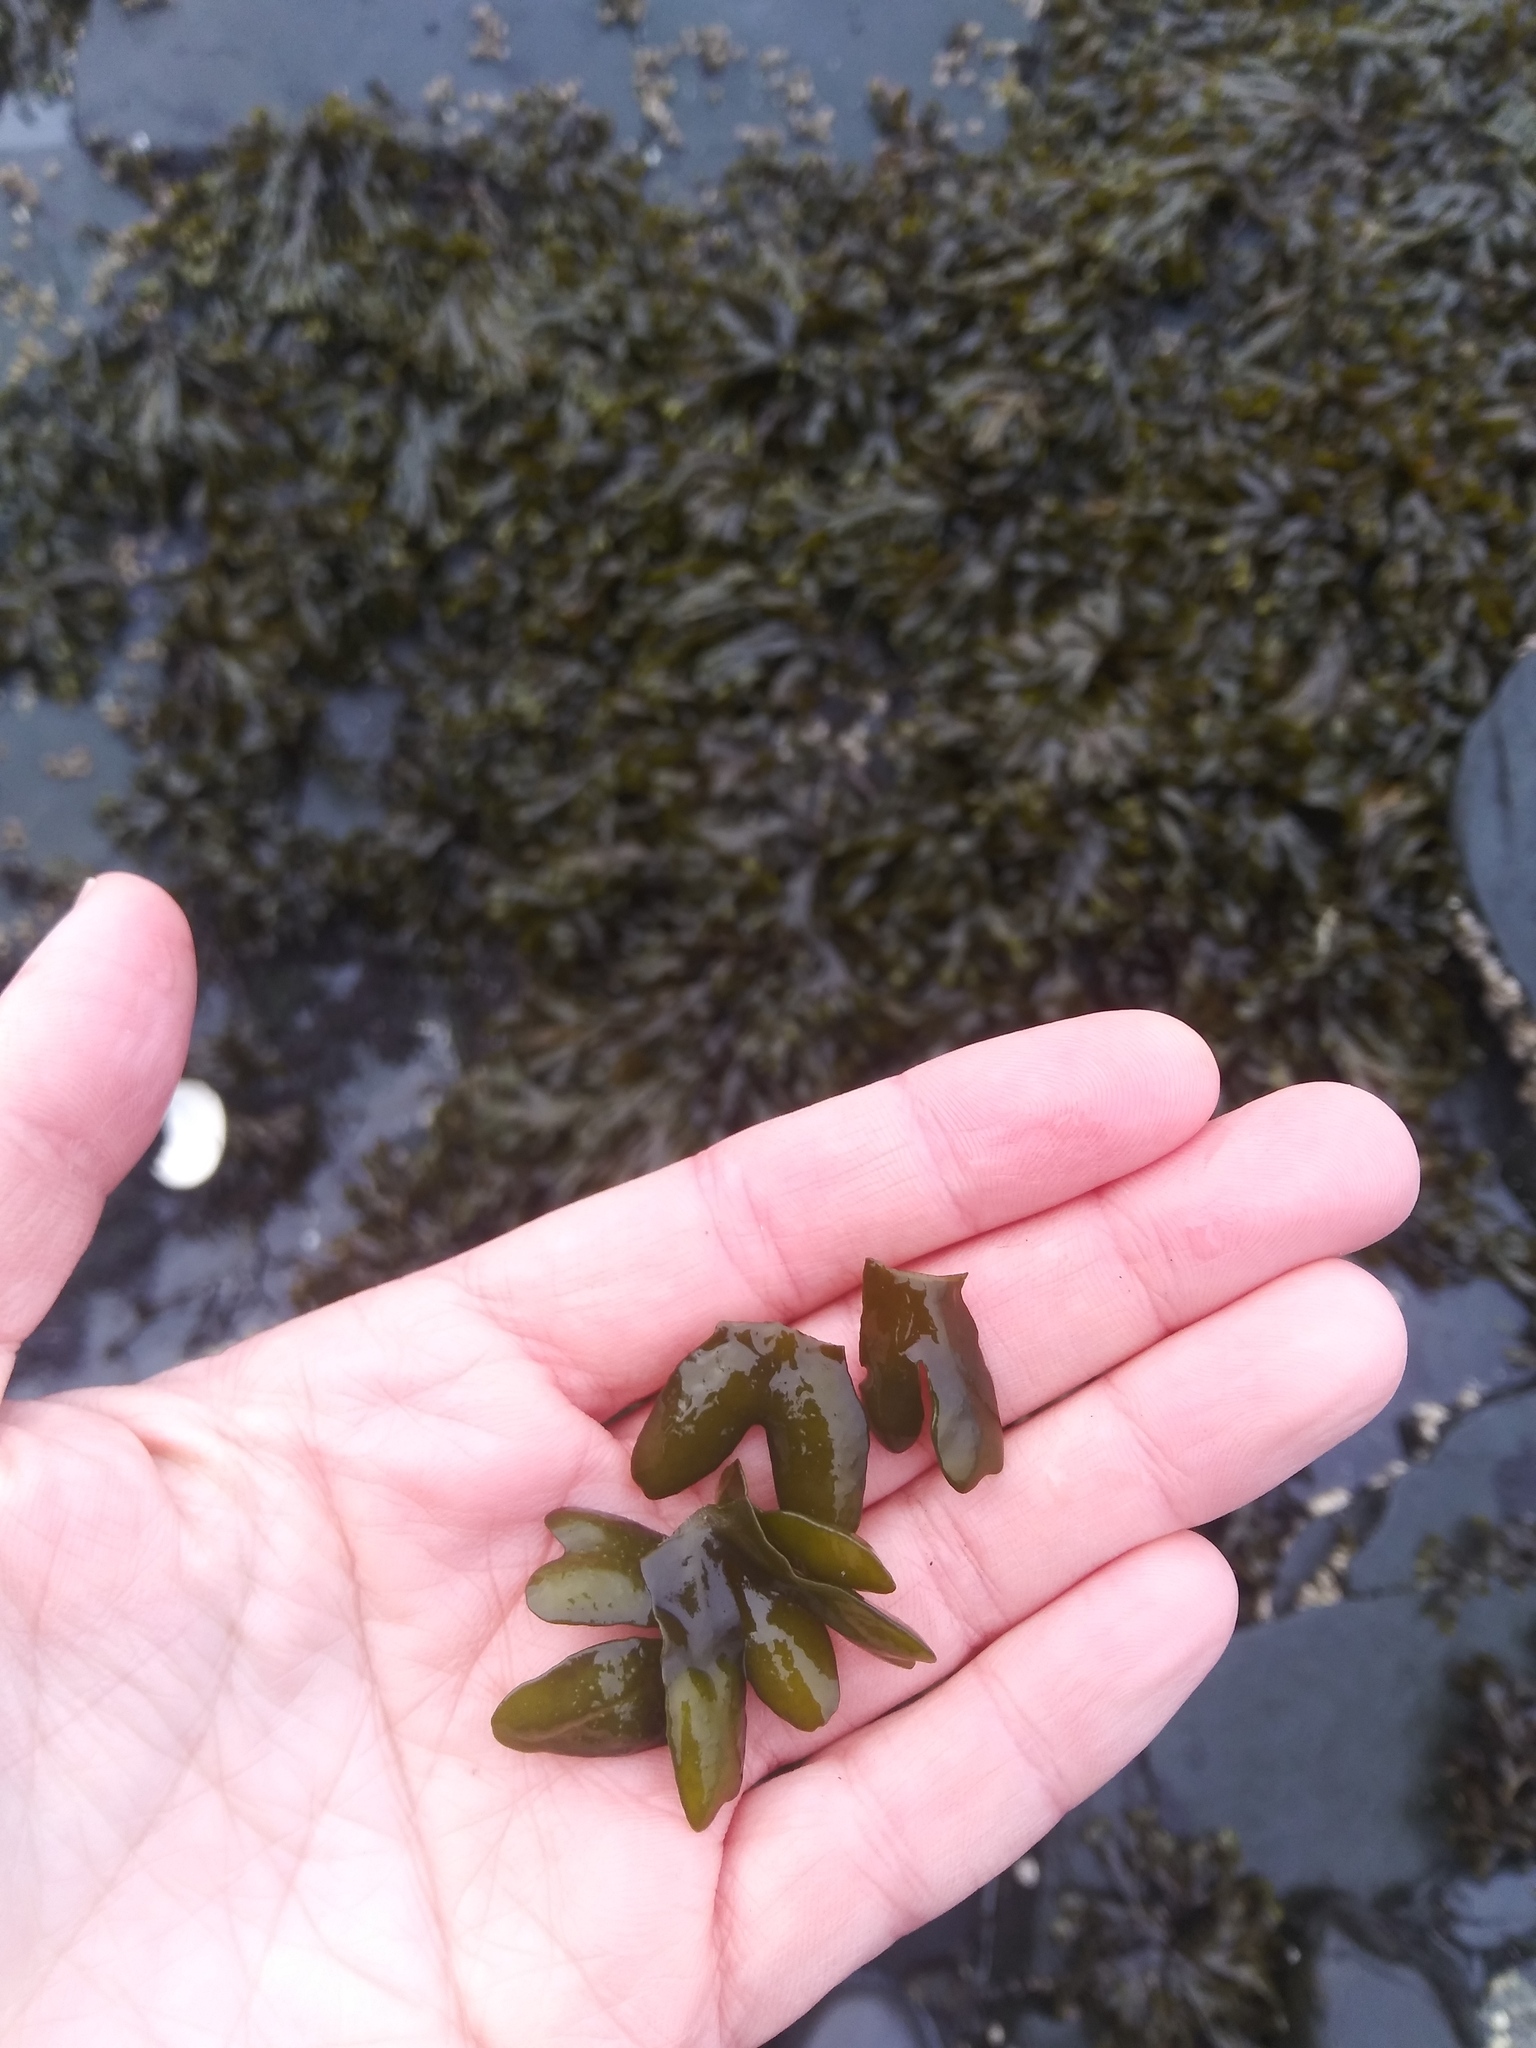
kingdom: Chromista
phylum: Ochrophyta
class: Phaeophyceae
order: Fucales
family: Fucaceae
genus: Fucus
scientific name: Fucus distichus
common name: Rockweed
